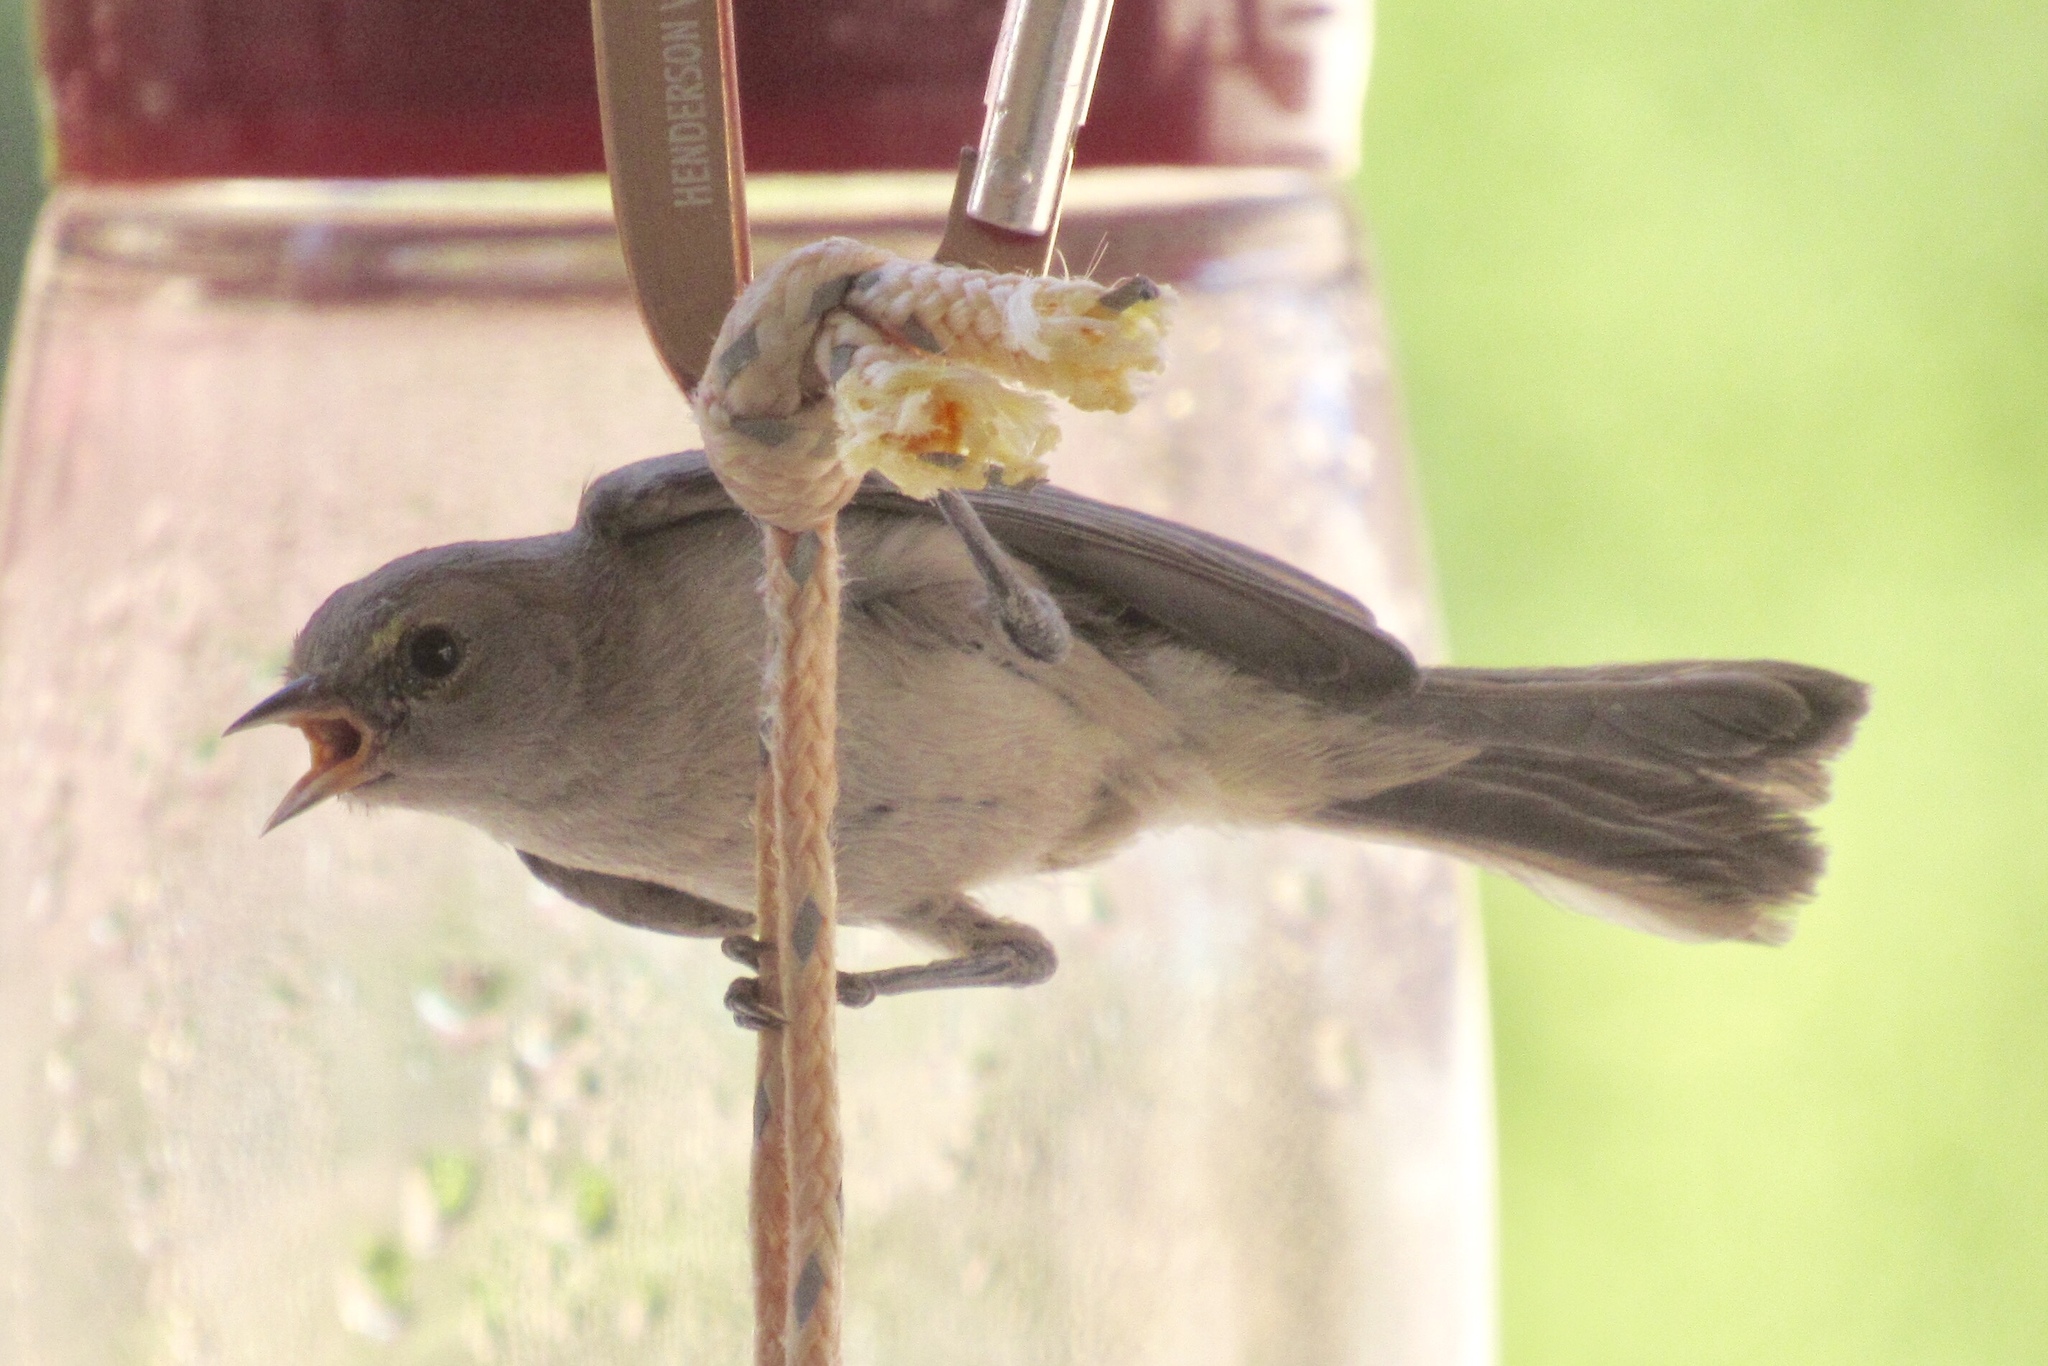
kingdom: Animalia
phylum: Chordata
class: Aves
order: Passeriformes
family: Remizidae
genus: Auriparus
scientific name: Auriparus flaviceps
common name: Verdin
